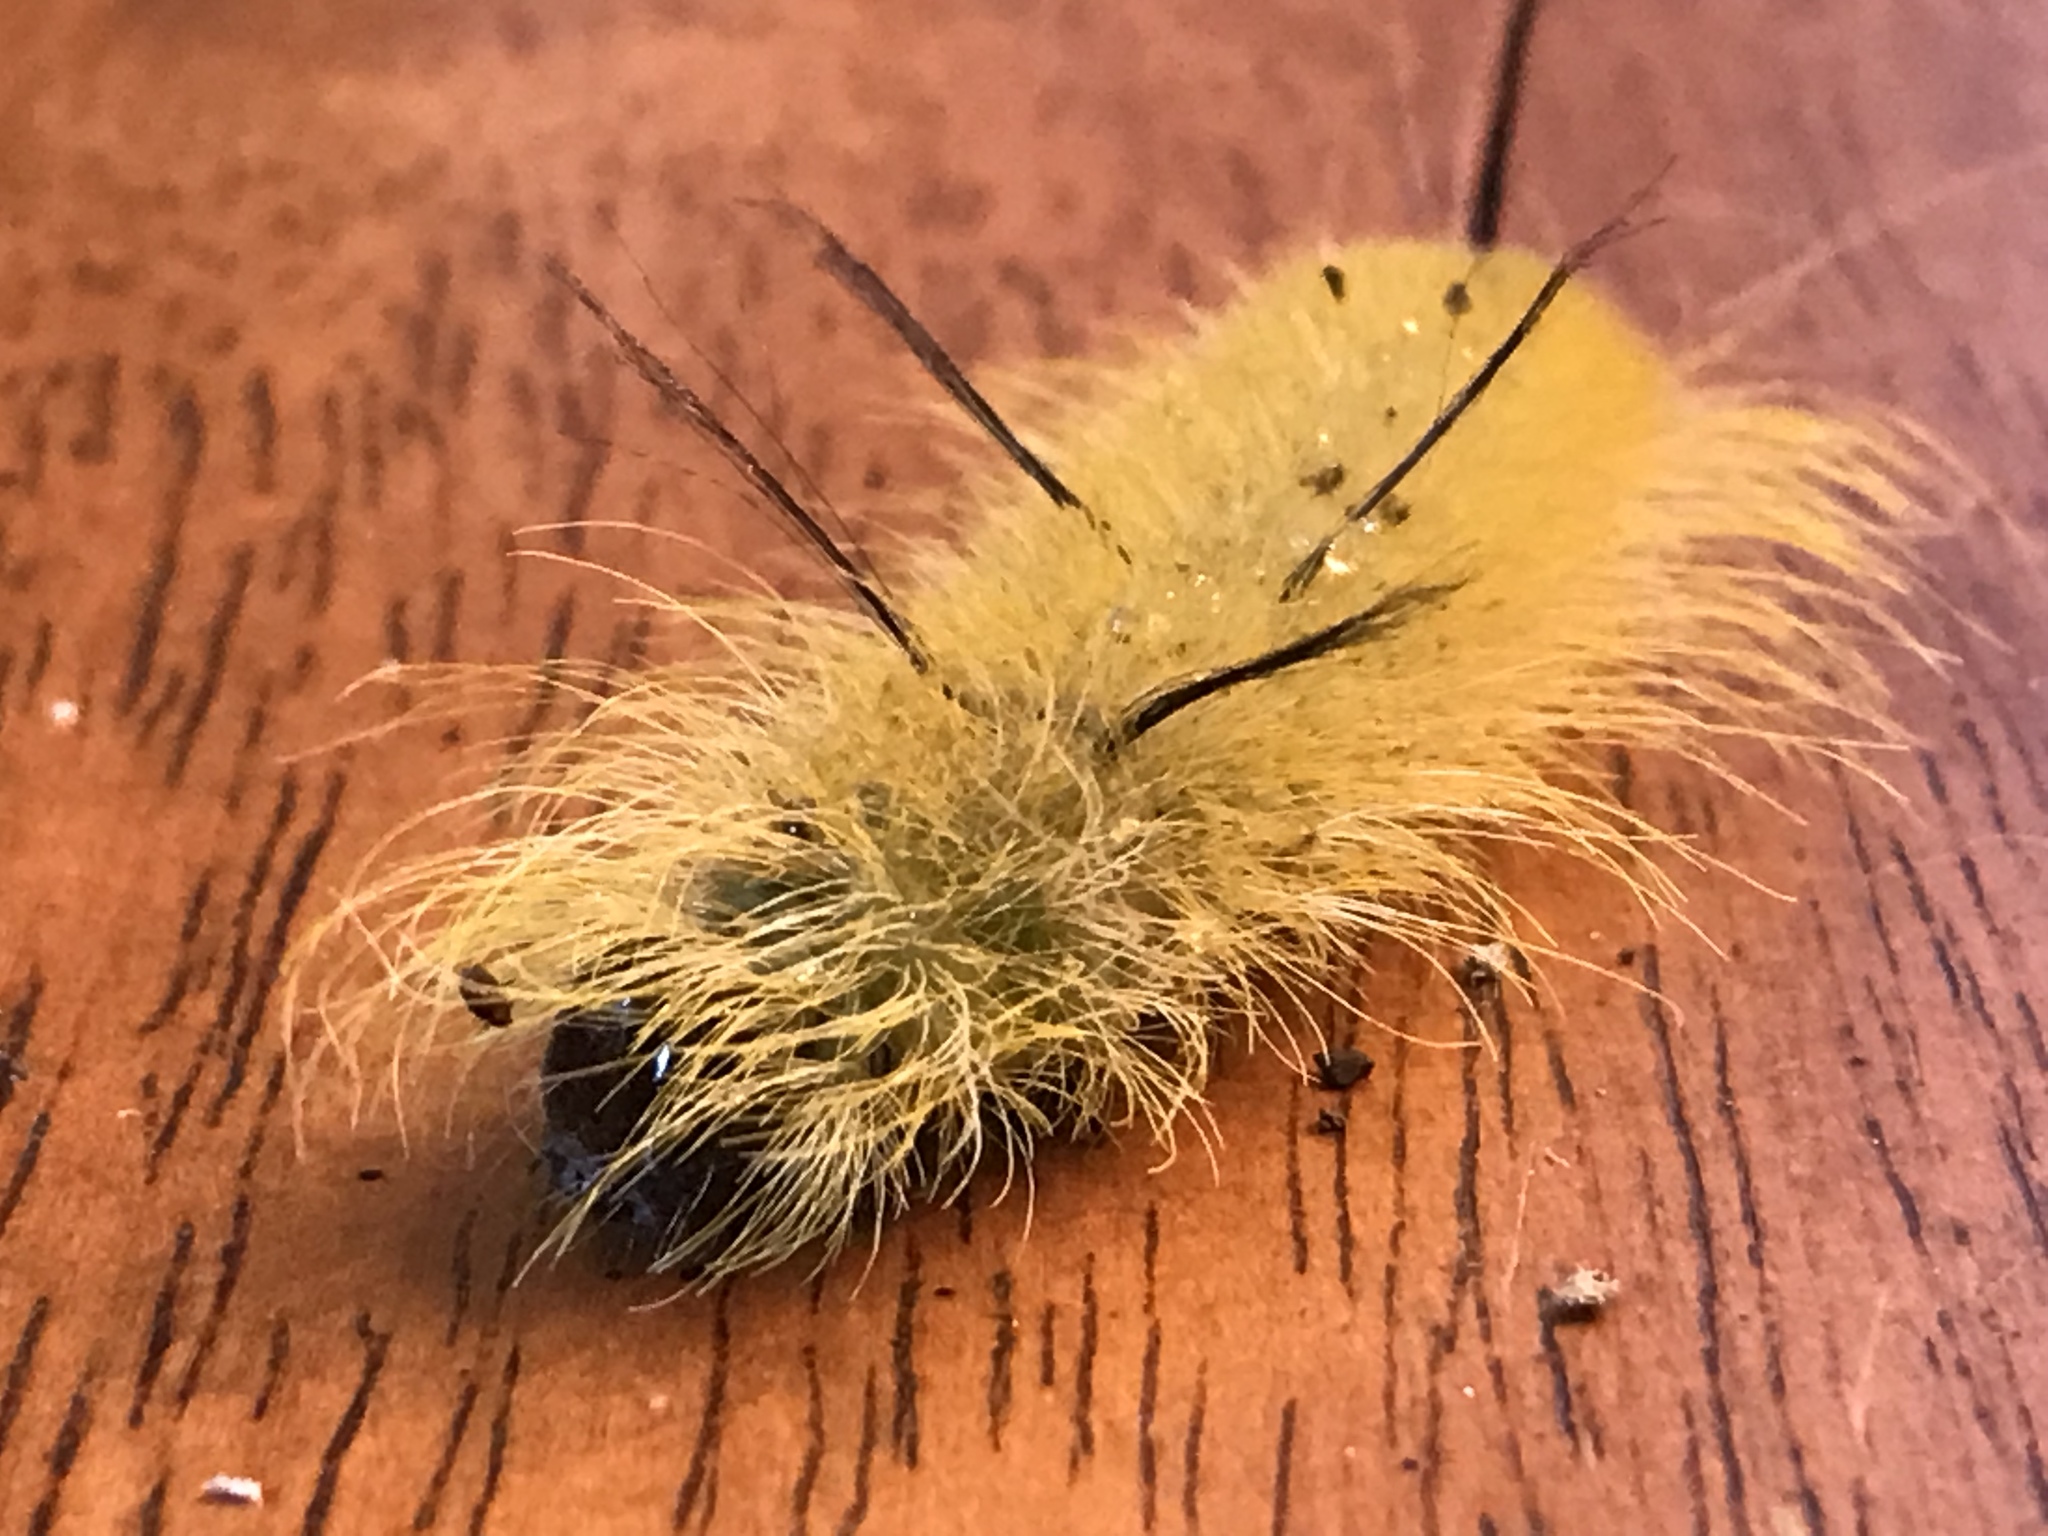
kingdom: Animalia
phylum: Arthropoda
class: Insecta
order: Lepidoptera
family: Noctuidae
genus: Acronicta
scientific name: Acronicta americana
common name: American dagger
